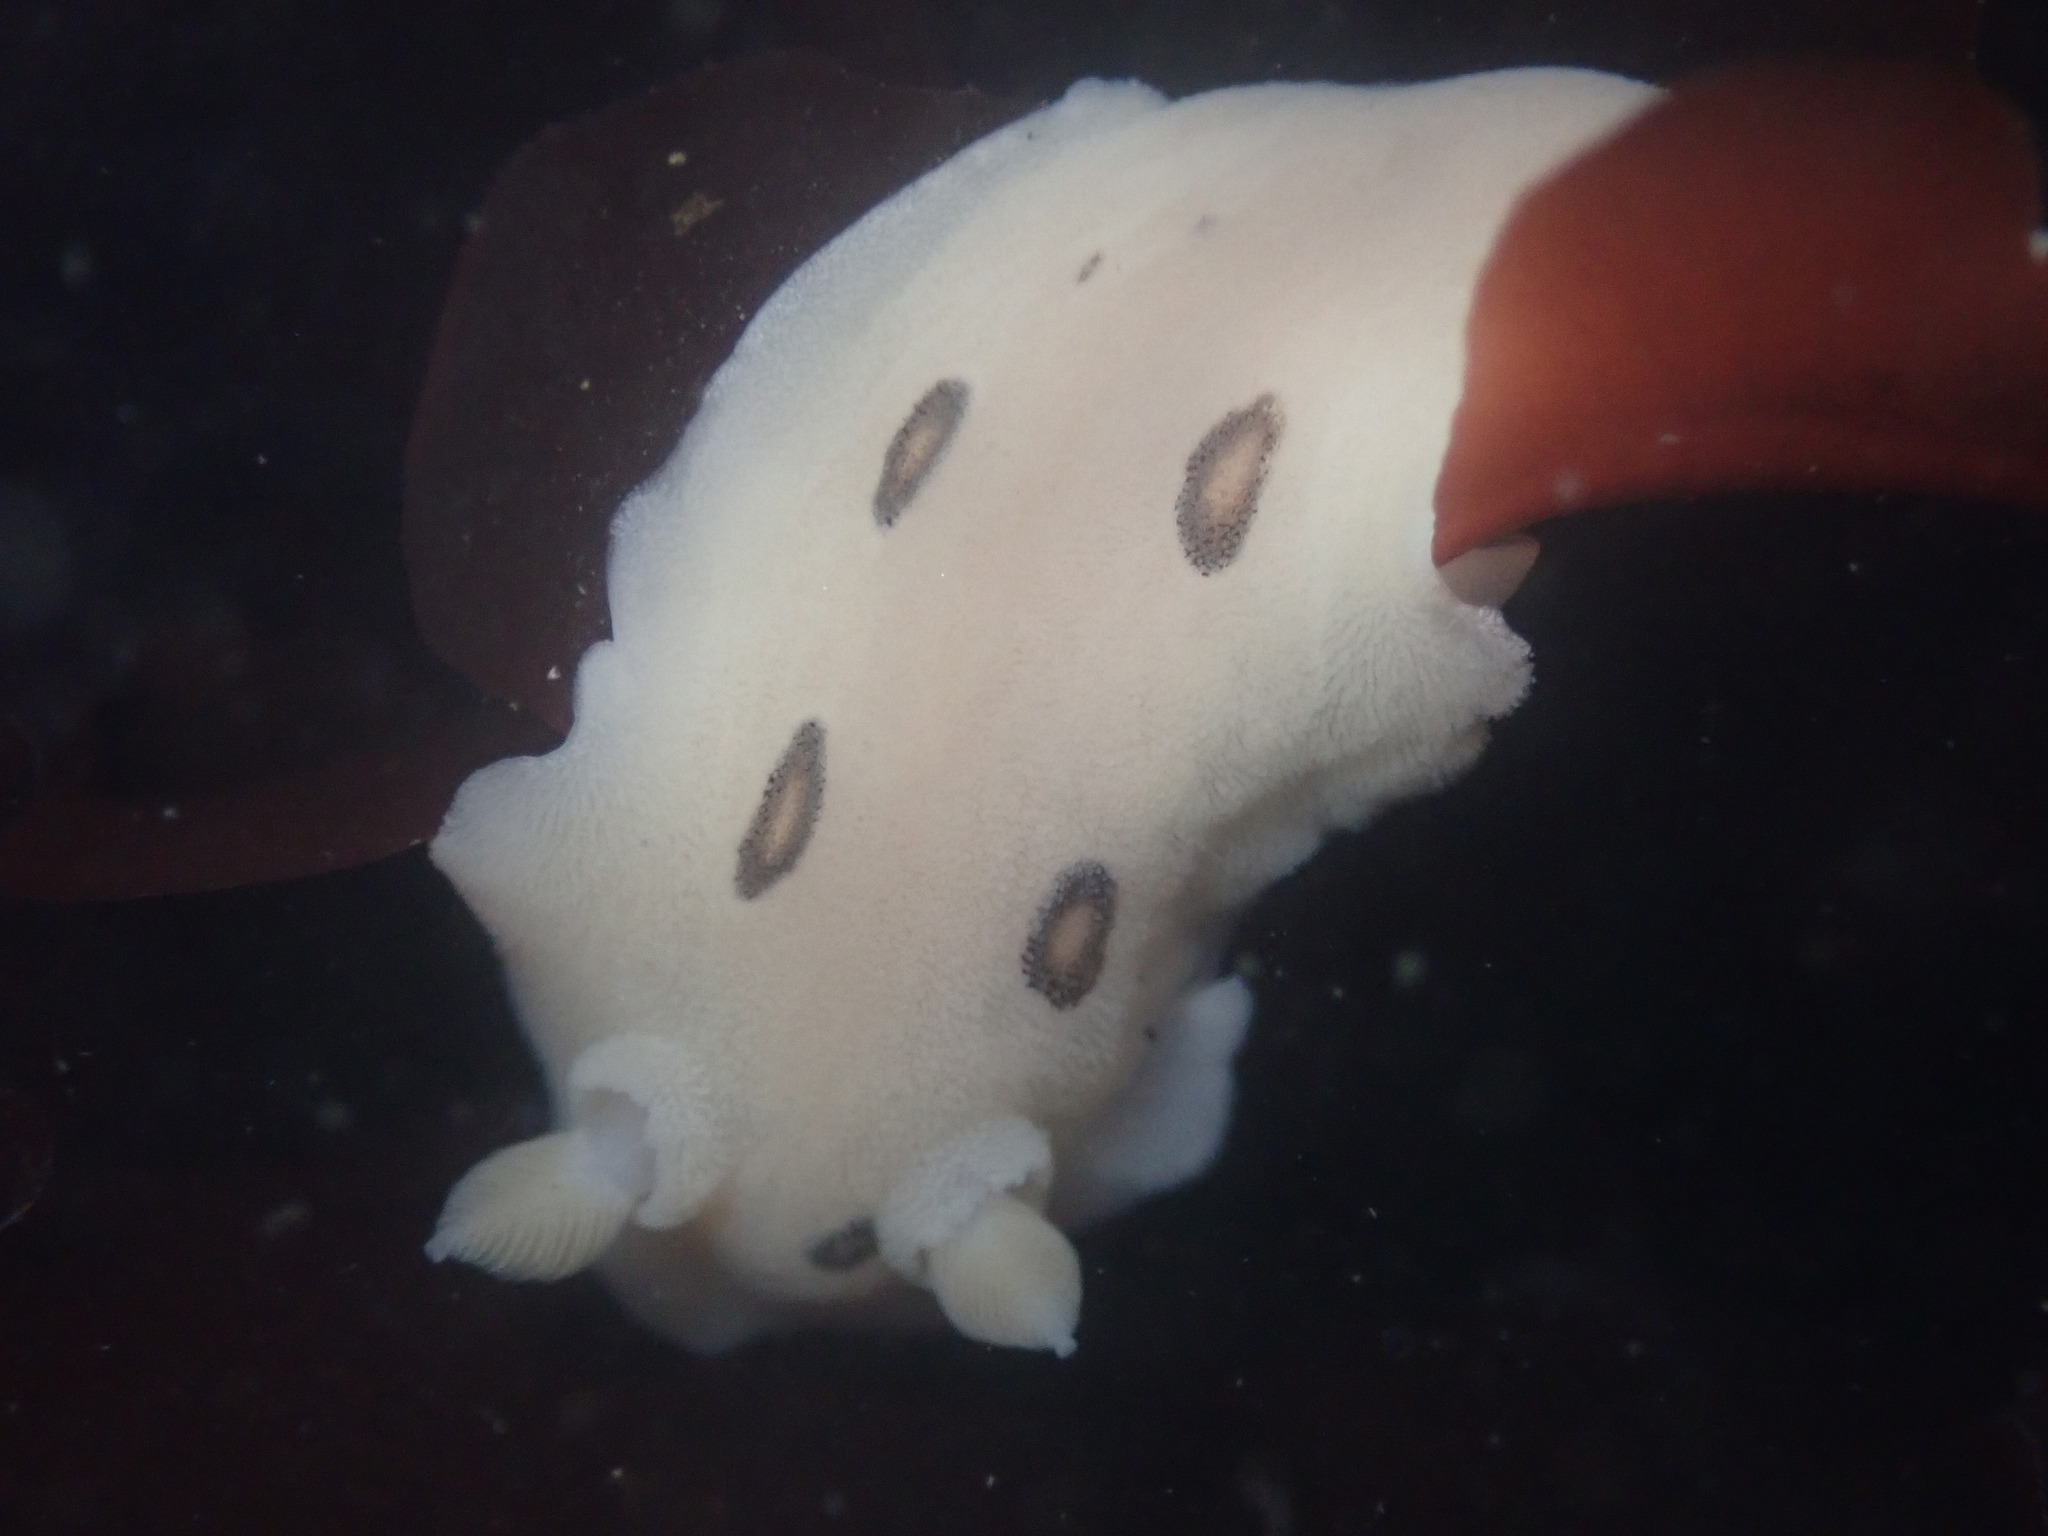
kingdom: Animalia
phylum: Mollusca
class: Gastropoda
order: Nudibranchia
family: Discodorididae
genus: Diaulula
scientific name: Diaulula sandiegensis
